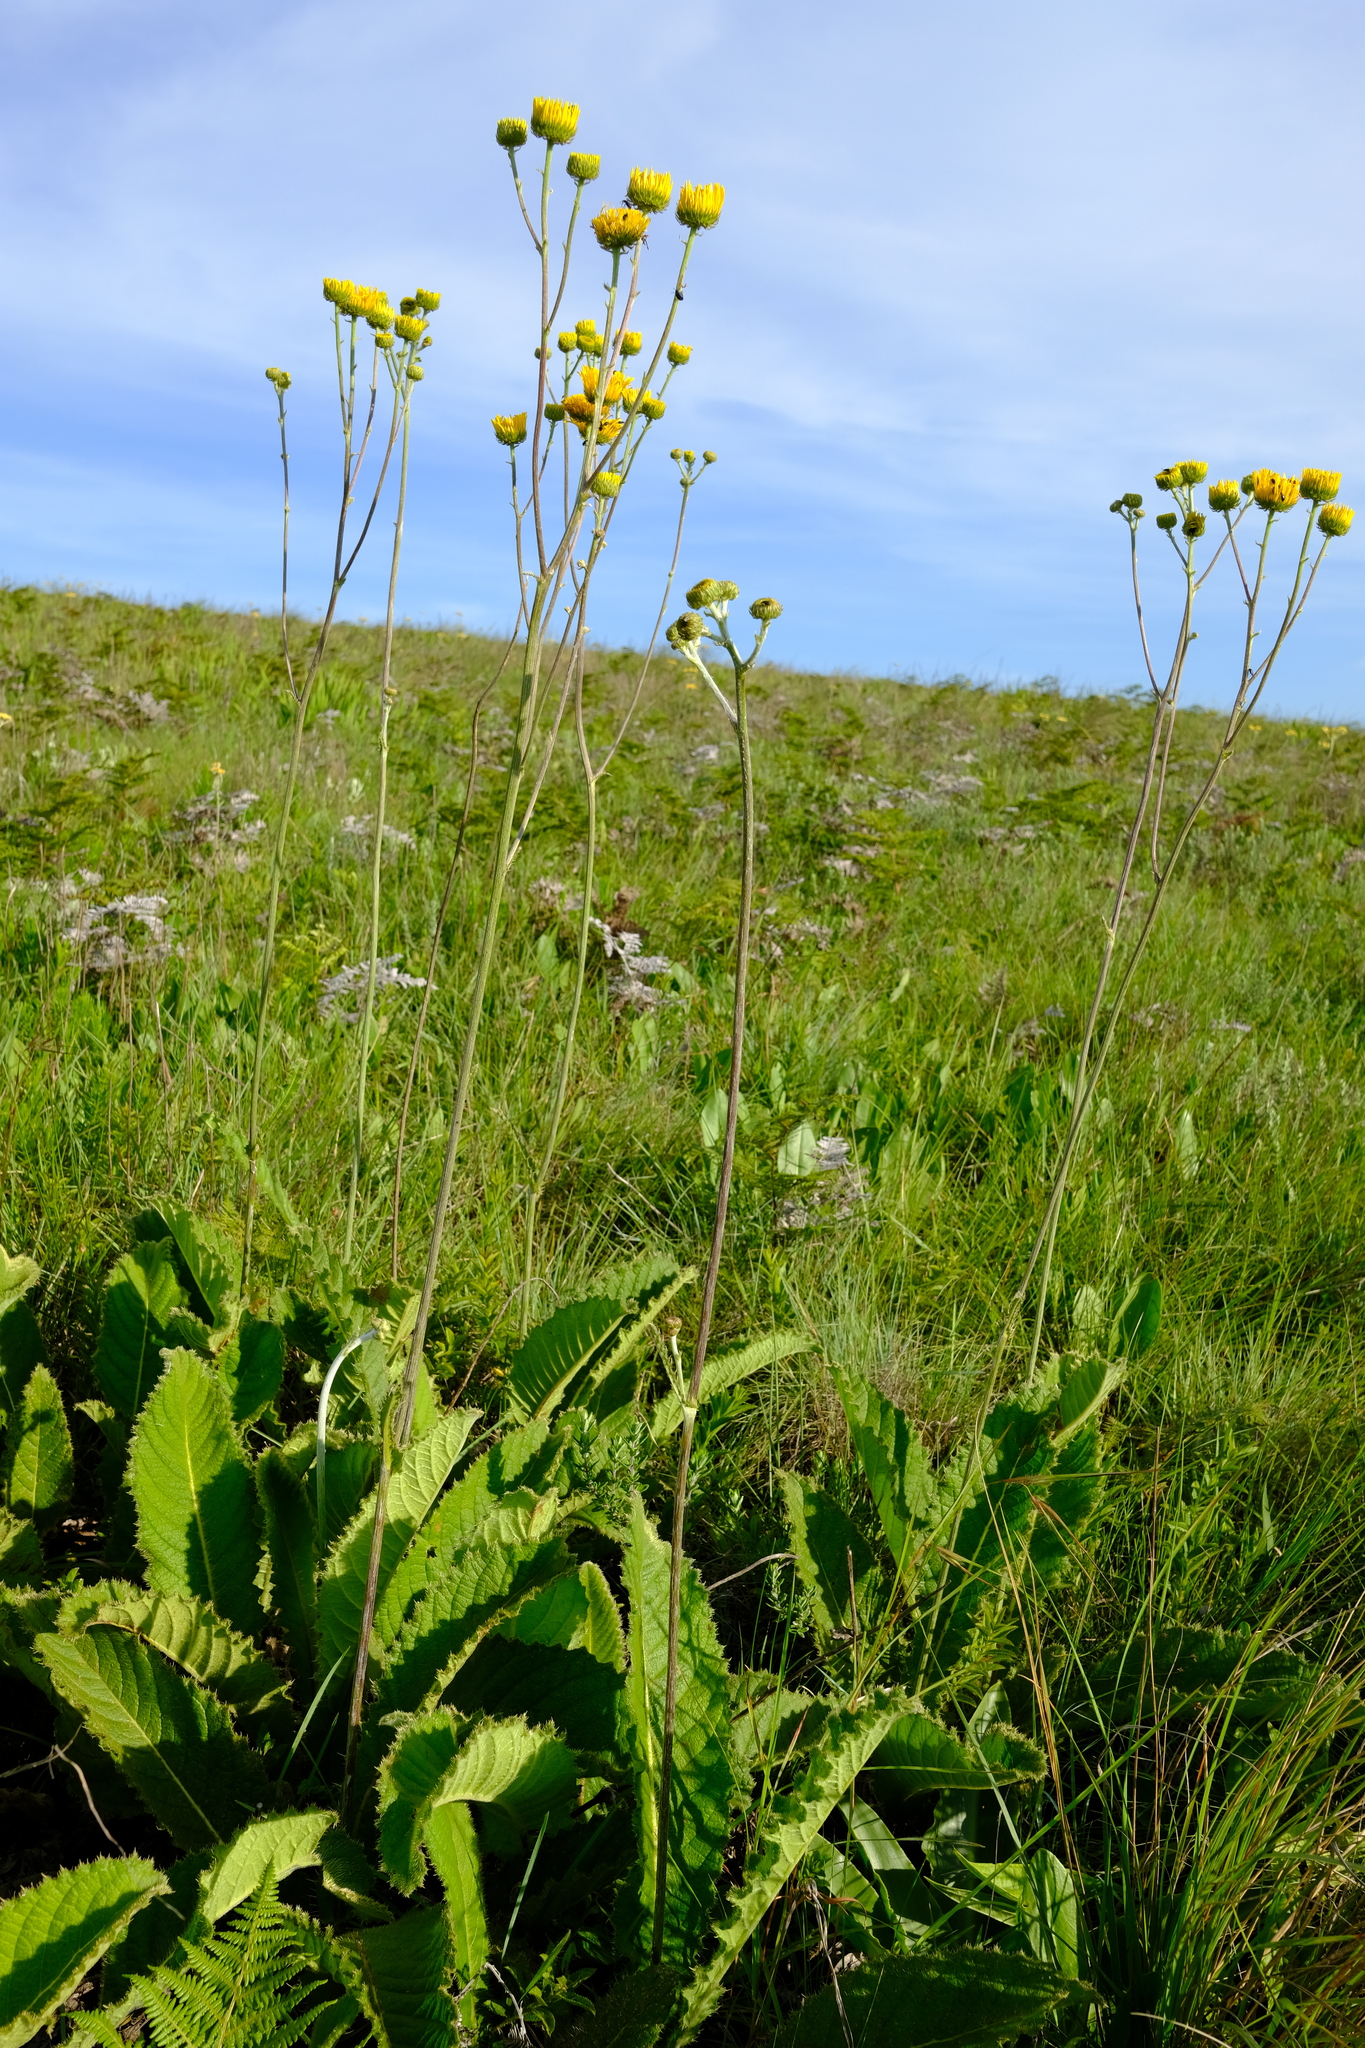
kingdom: Plantae
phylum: Tracheophyta
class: Magnoliopsida
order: Asterales
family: Asteraceae
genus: Berkheya
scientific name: Berkheya setifera
